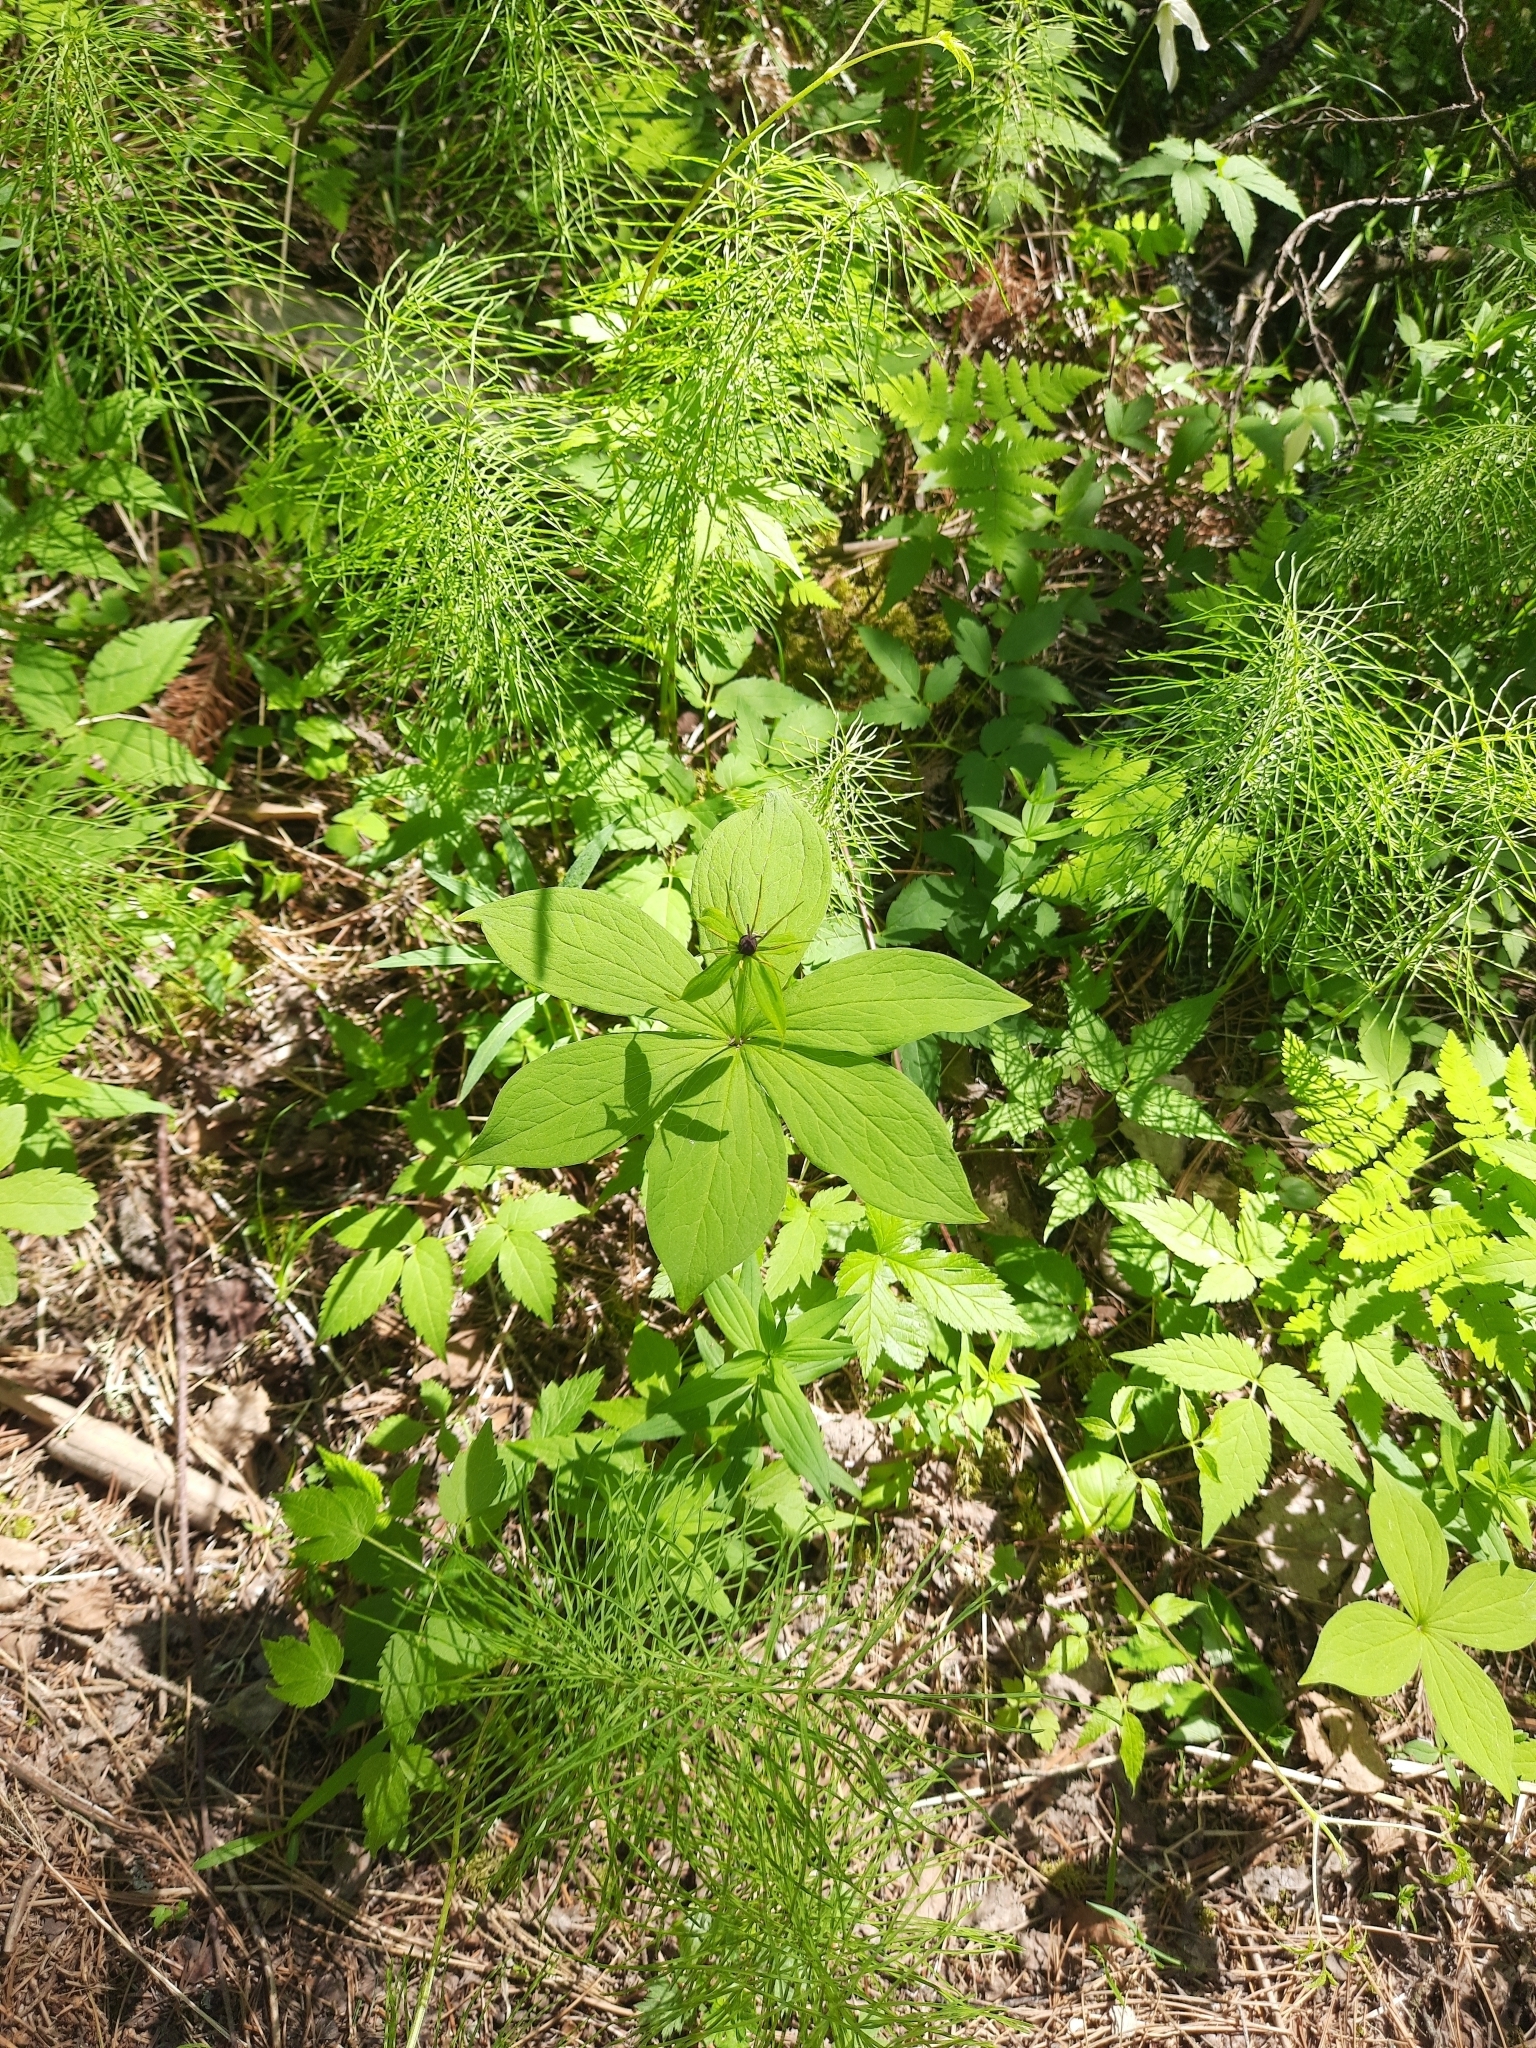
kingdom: Plantae
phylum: Tracheophyta
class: Liliopsida
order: Liliales
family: Melanthiaceae
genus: Paris
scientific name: Paris quadrifolia
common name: Herb-paris
